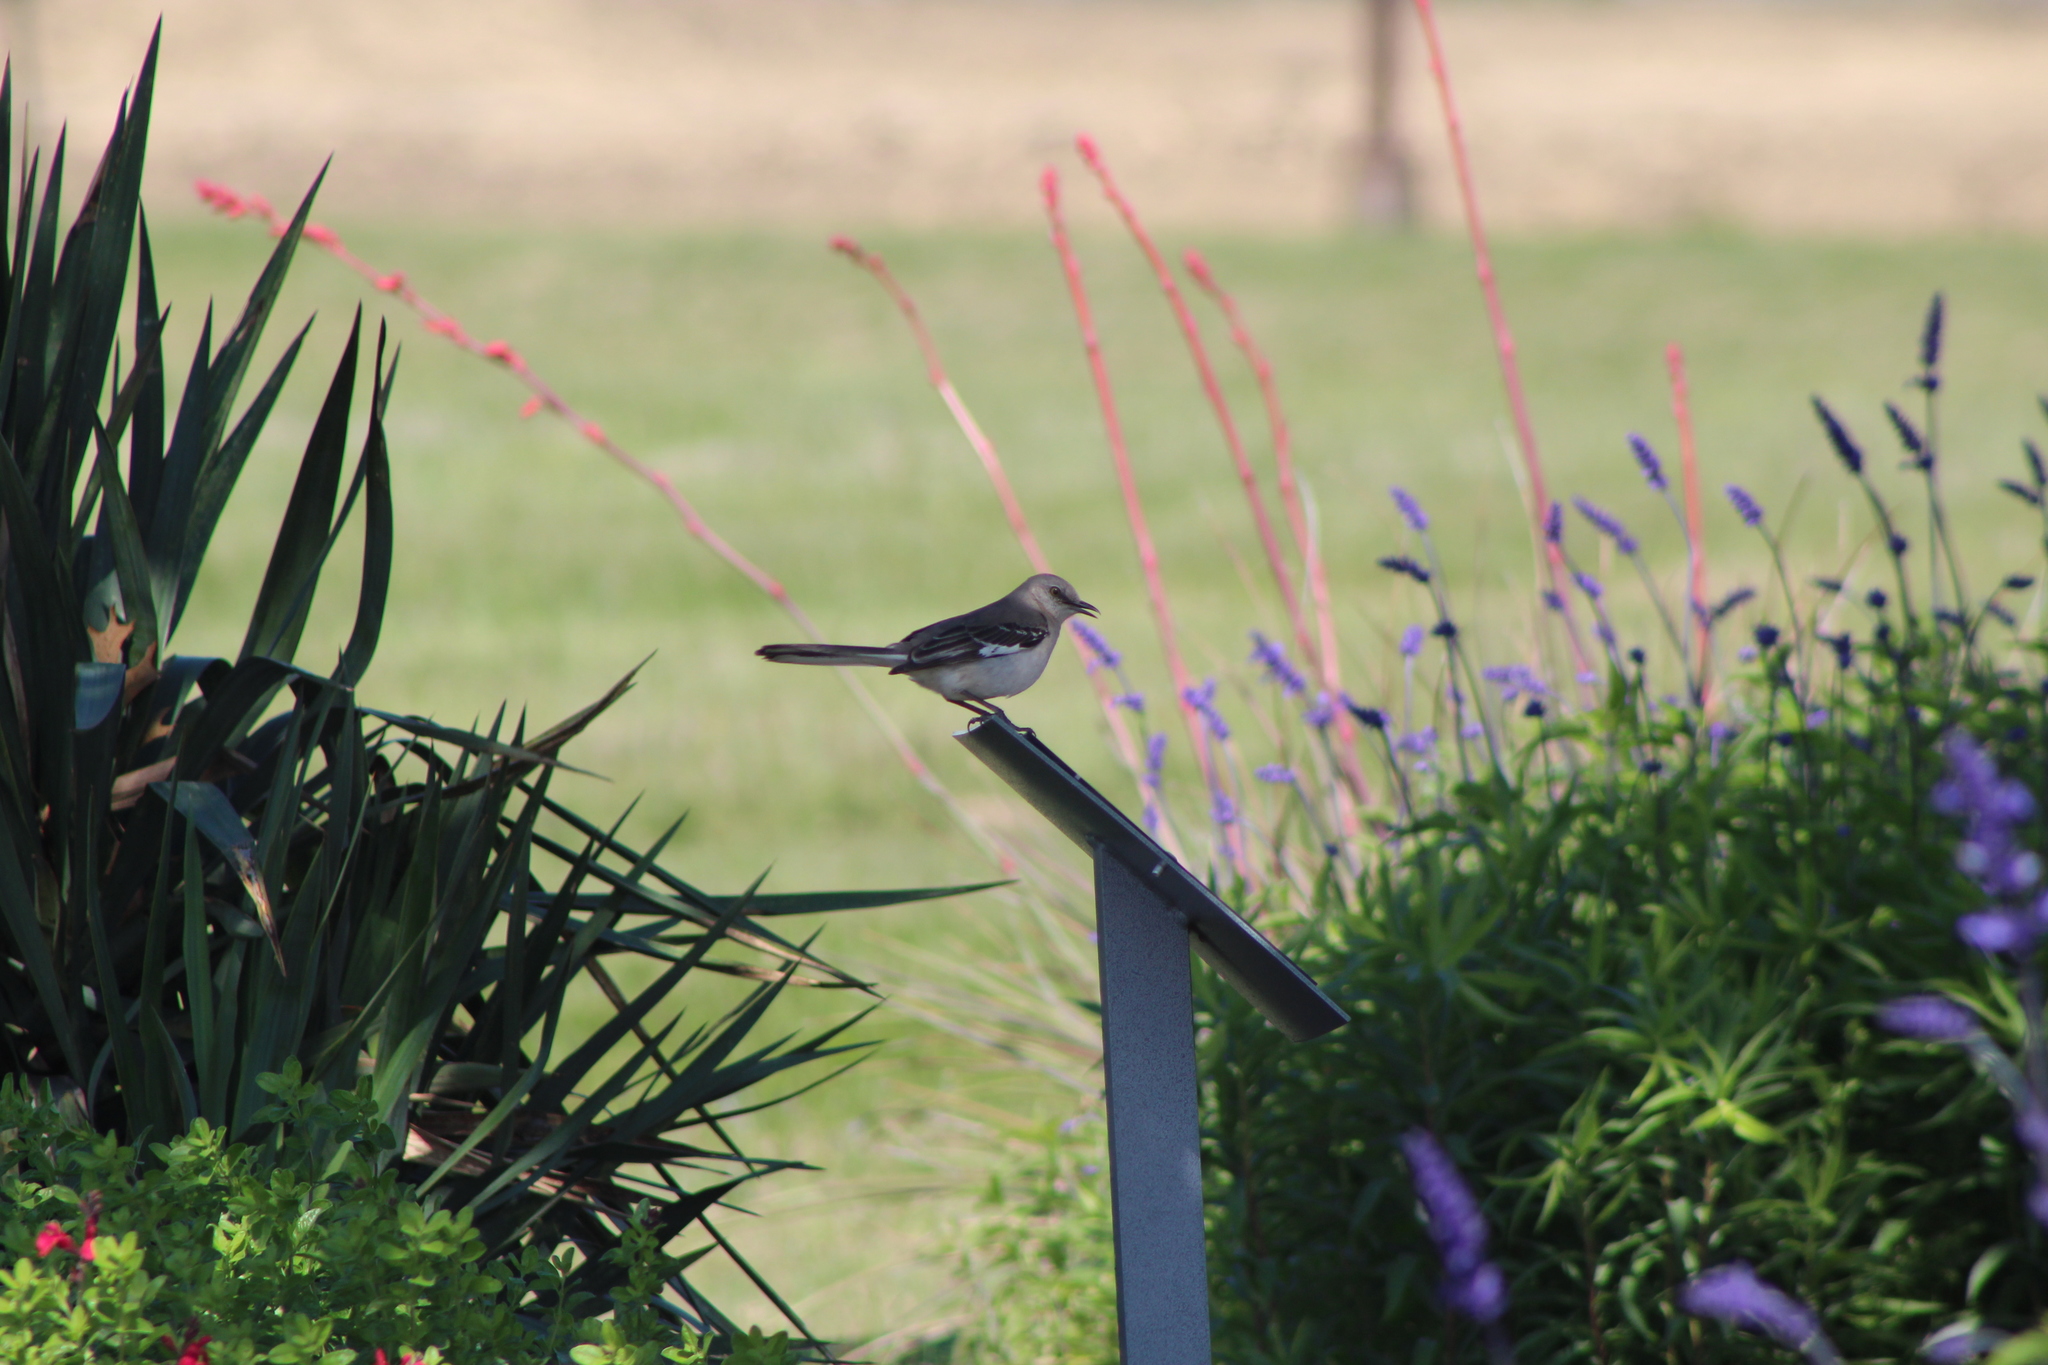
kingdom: Animalia
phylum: Chordata
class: Aves
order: Passeriformes
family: Mimidae
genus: Mimus
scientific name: Mimus polyglottos
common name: Northern mockingbird
